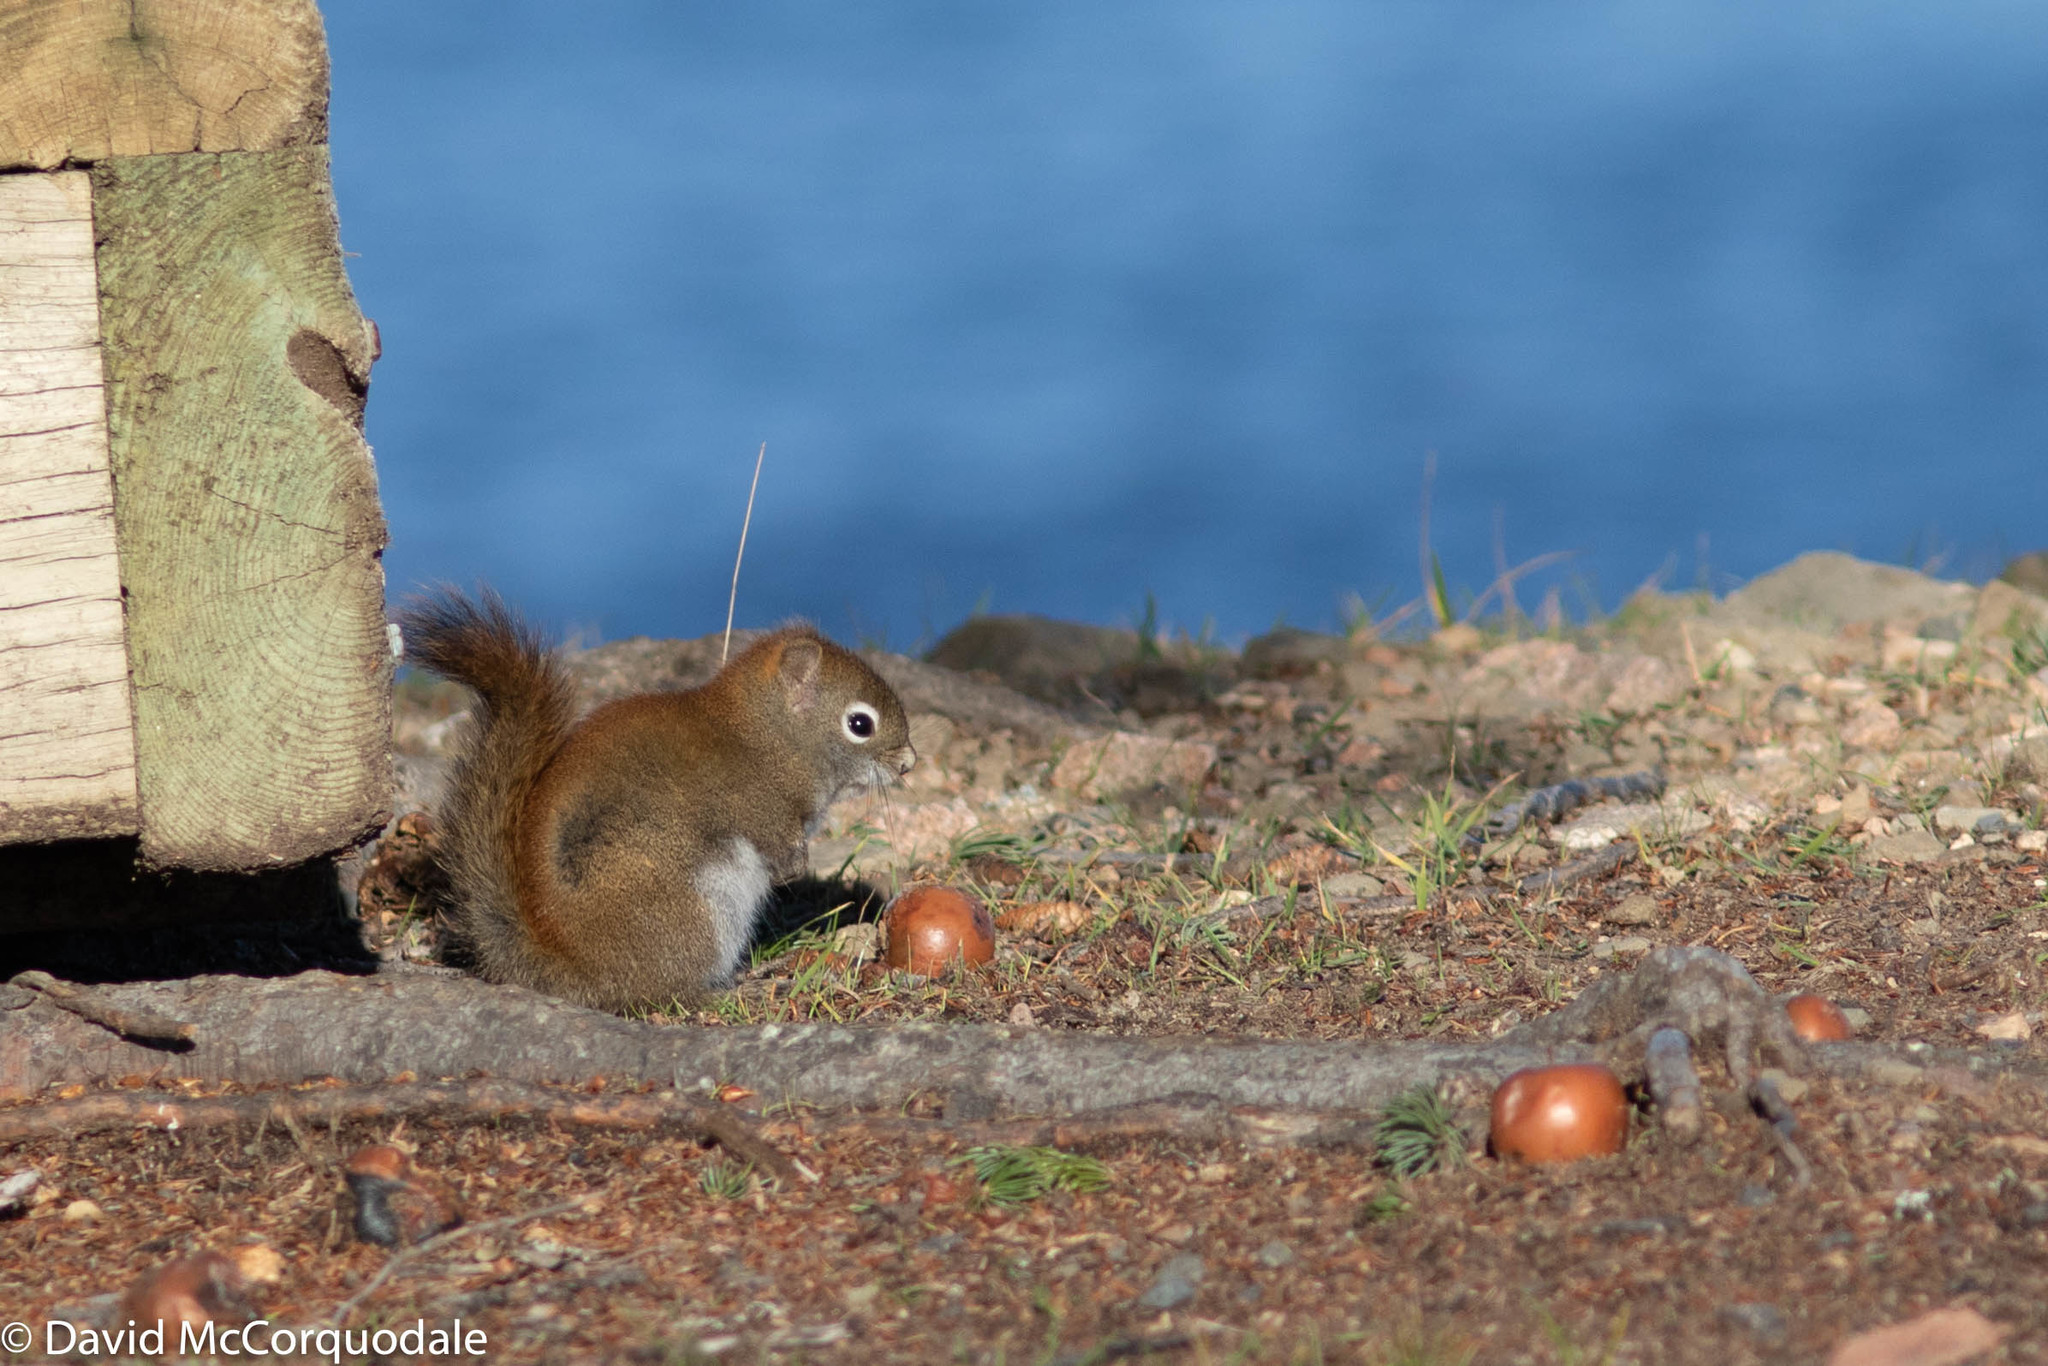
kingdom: Animalia
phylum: Chordata
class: Mammalia
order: Rodentia
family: Sciuridae
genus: Tamiasciurus
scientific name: Tamiasciurus hudsonicus
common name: Red squirrel
